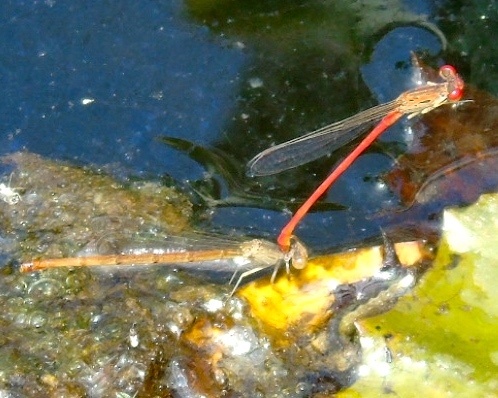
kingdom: Animalia
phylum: Arthropoda
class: Insecta
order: Odonata
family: Coenagrionidae
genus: Telebasis
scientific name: Telebasis salva
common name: Desert firetail
